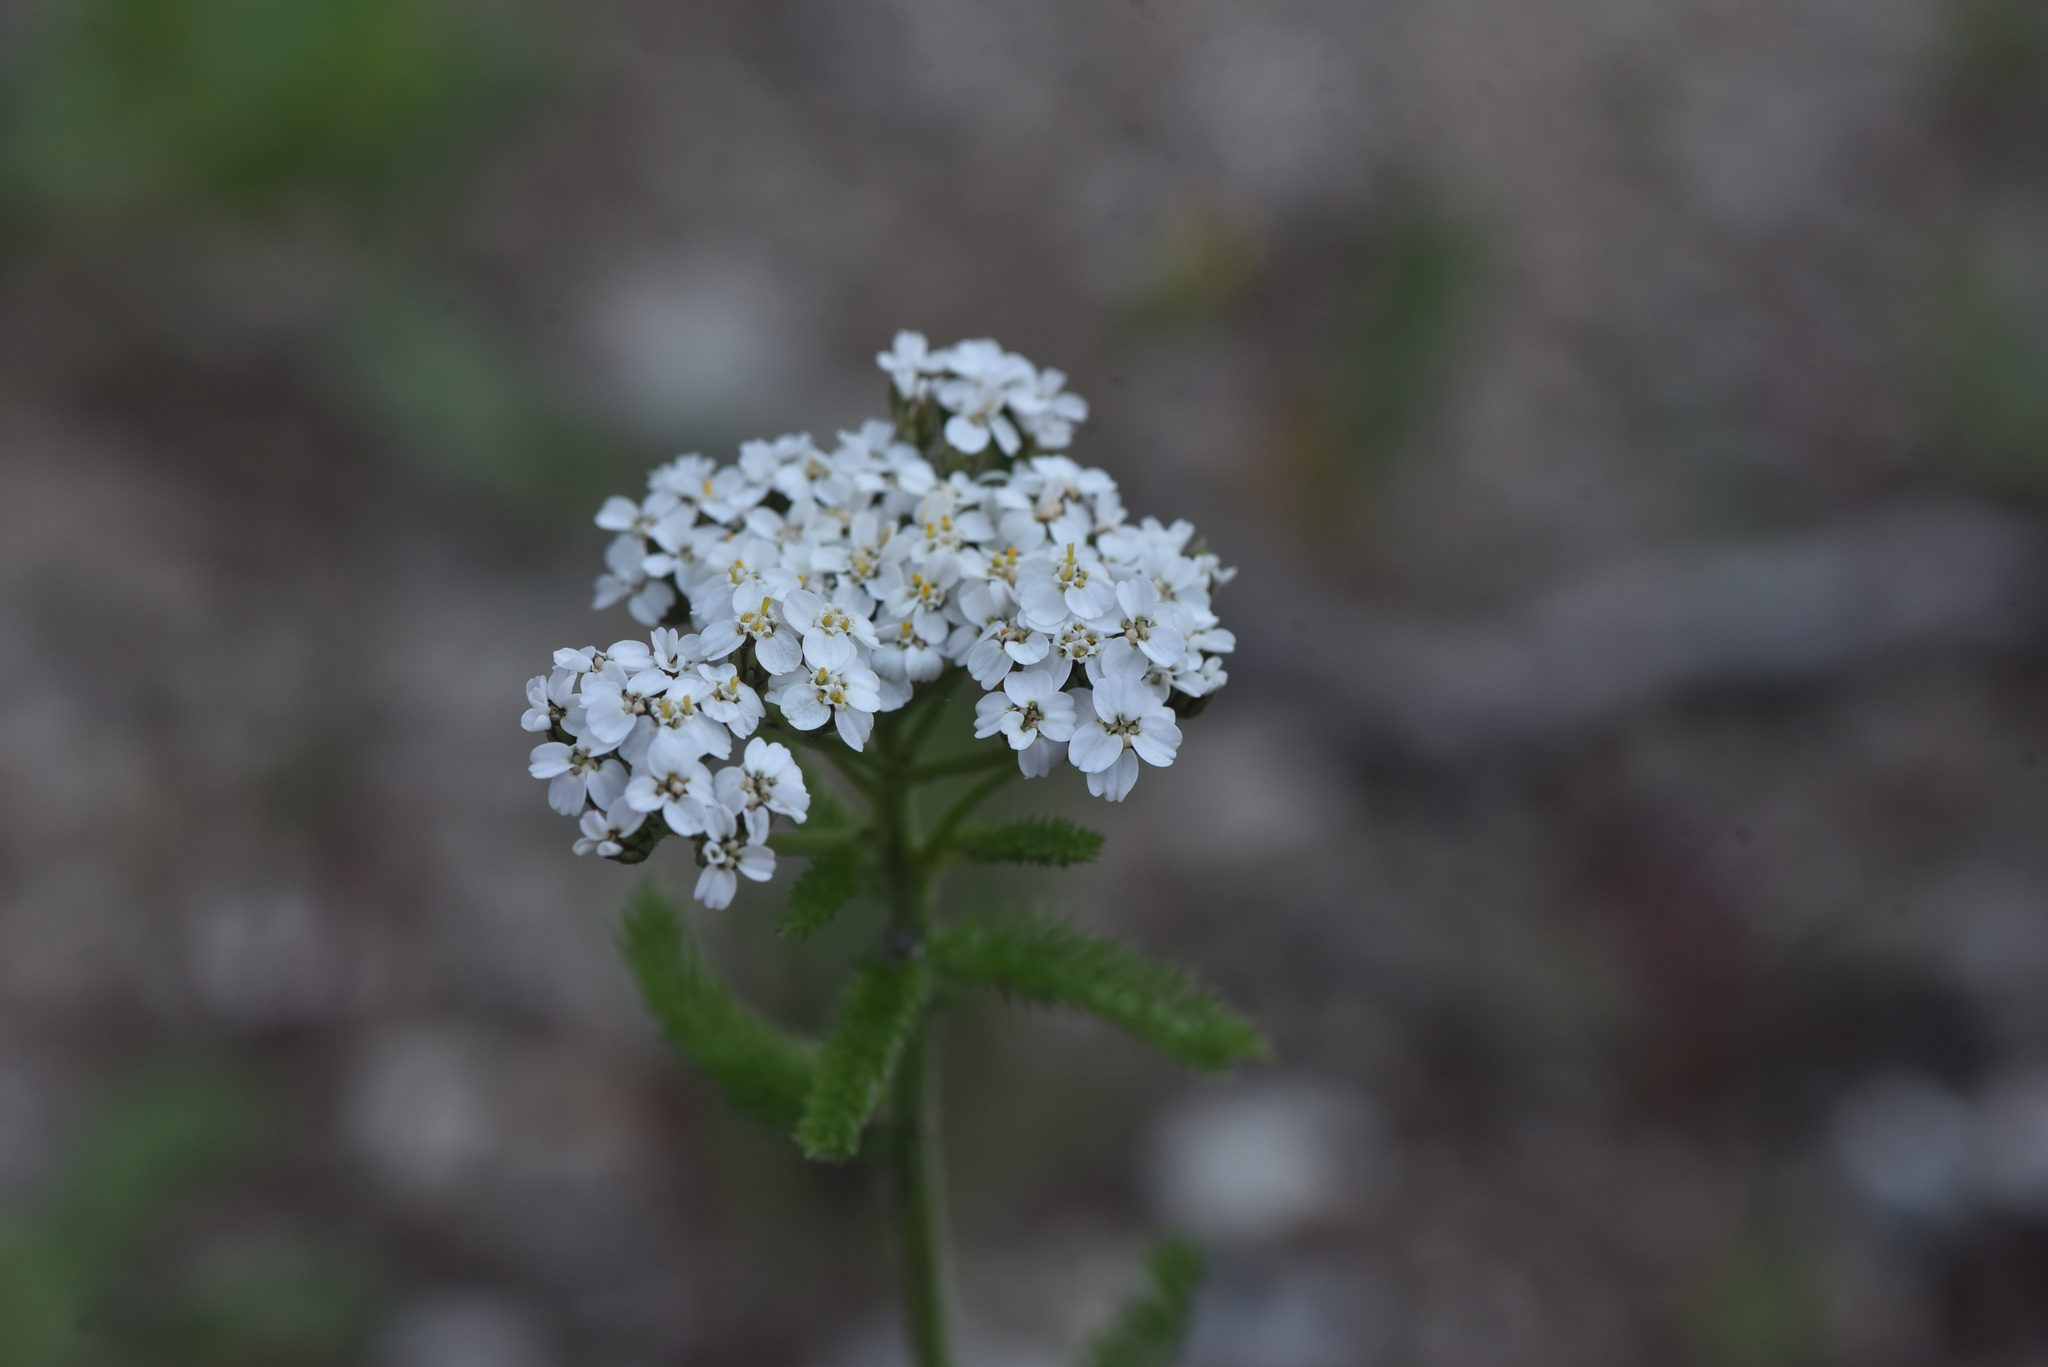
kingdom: Plantae
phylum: Tracheophyta
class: Magnoliopsida
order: Asterales
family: Asteraceae
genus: Achillea
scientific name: Achillea millefolium
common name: Yarrow
